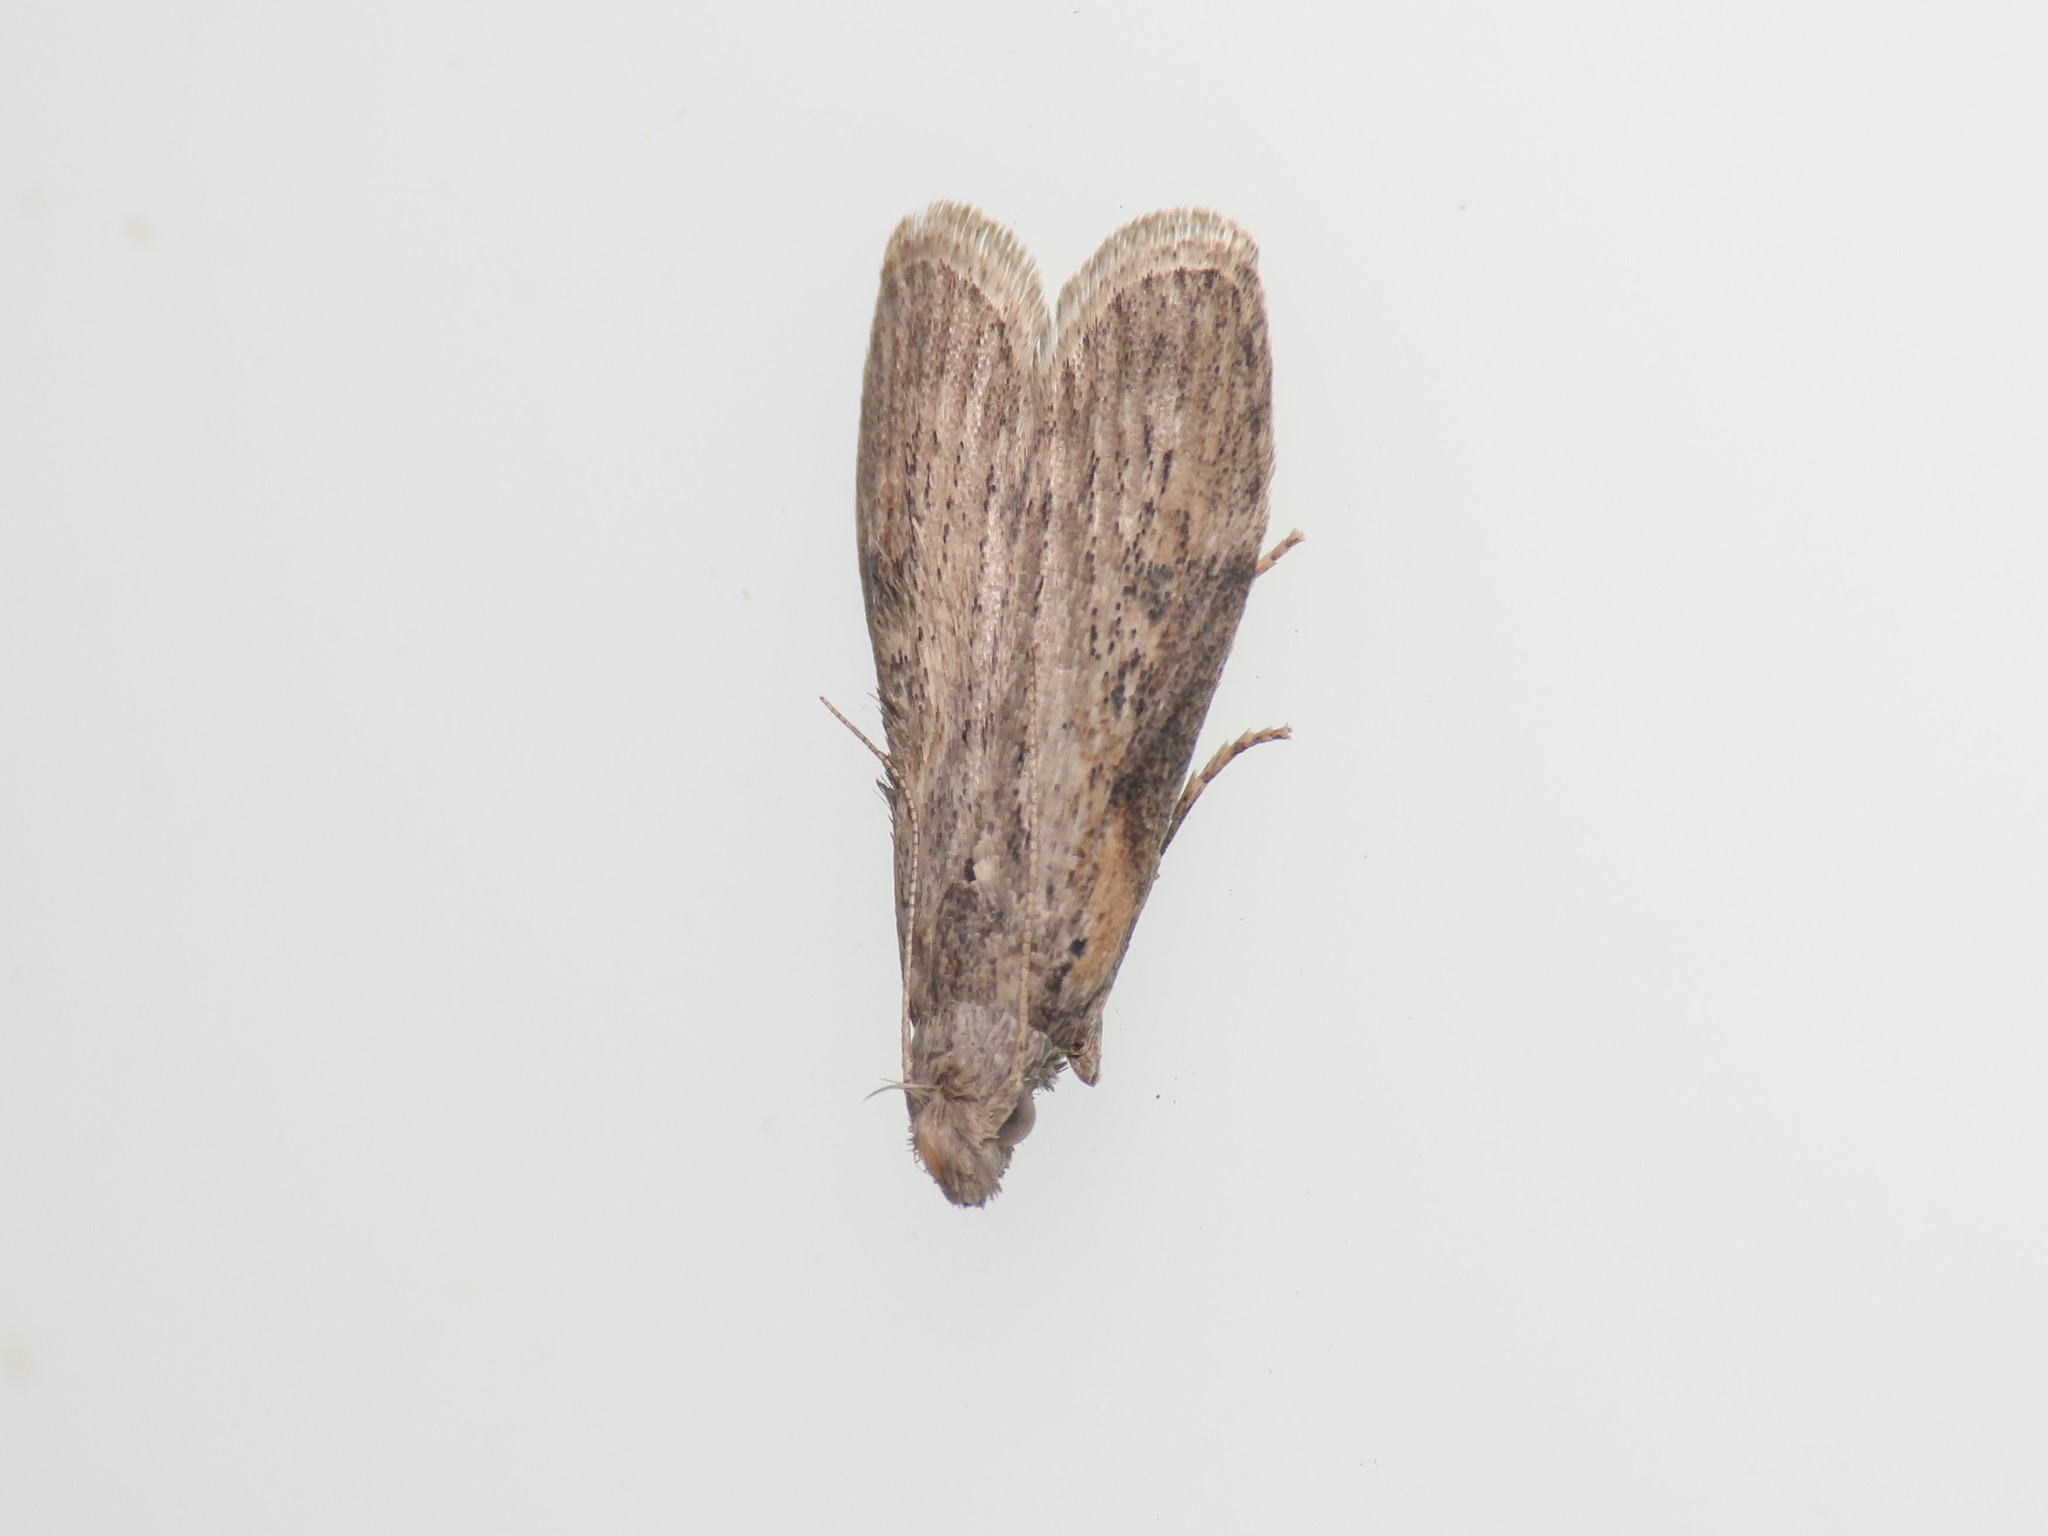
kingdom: Animalia
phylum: Arthropoda
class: Insecta
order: Lepidoptera
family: Pyralidae
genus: Lamoria
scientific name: Lamoria anella
